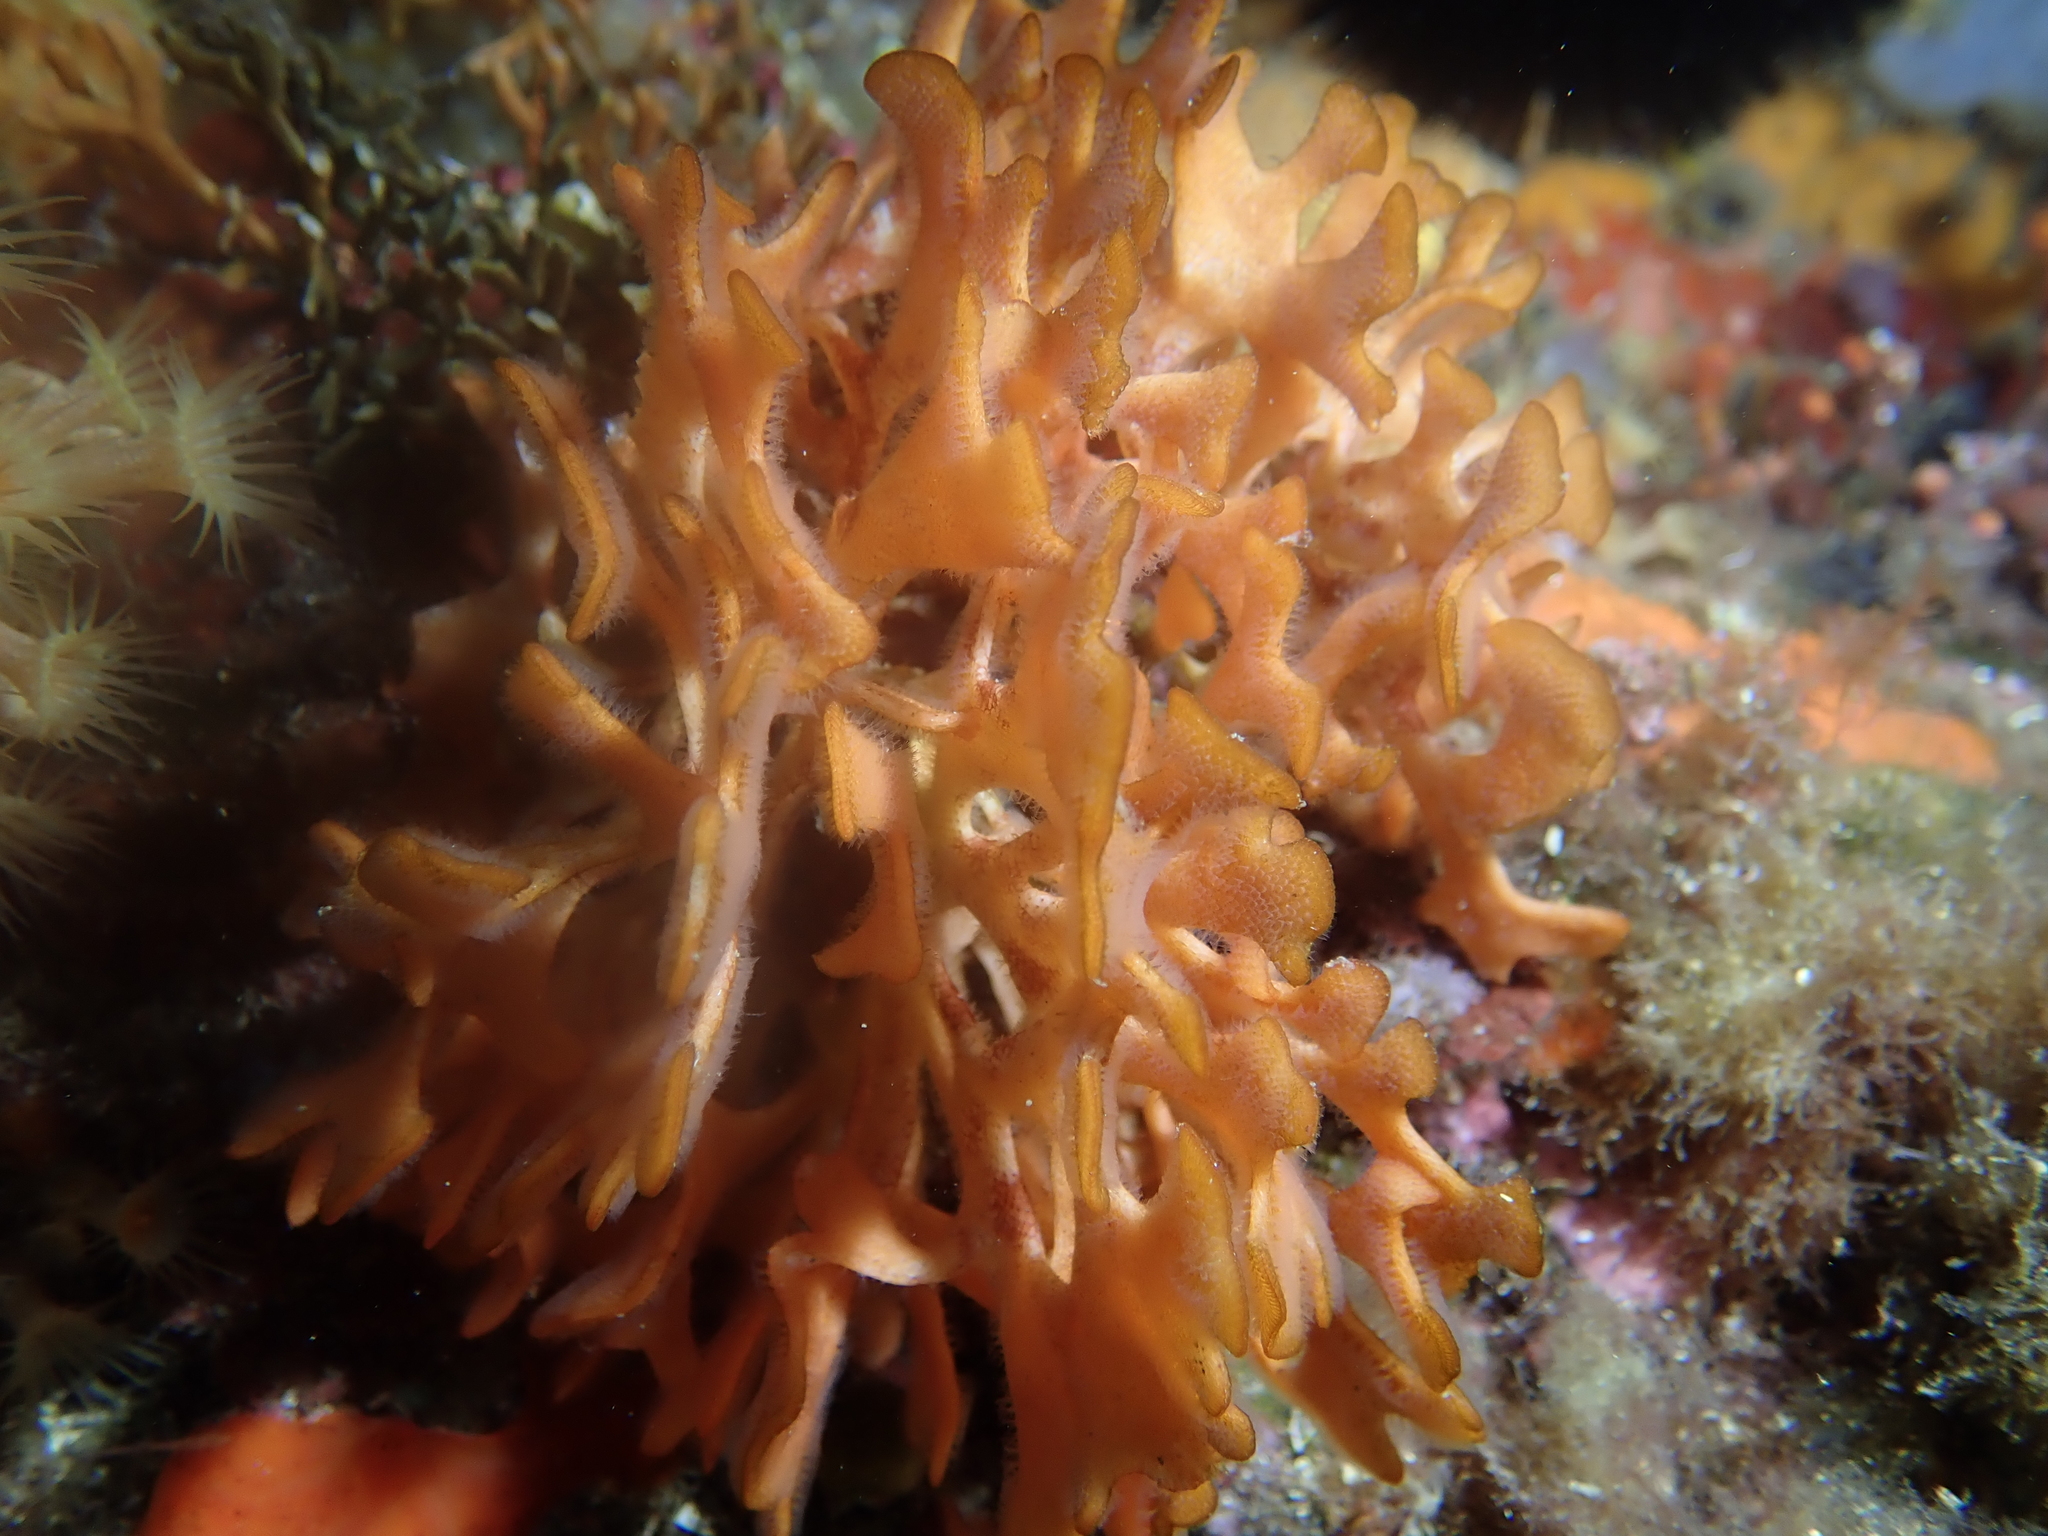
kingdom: Animalia
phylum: Bryozoa
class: Gymnolaemata
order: Cheilostomatida
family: Bitectiporidae
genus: Pentapora
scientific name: Pentapora fascialis
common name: Ross coral
